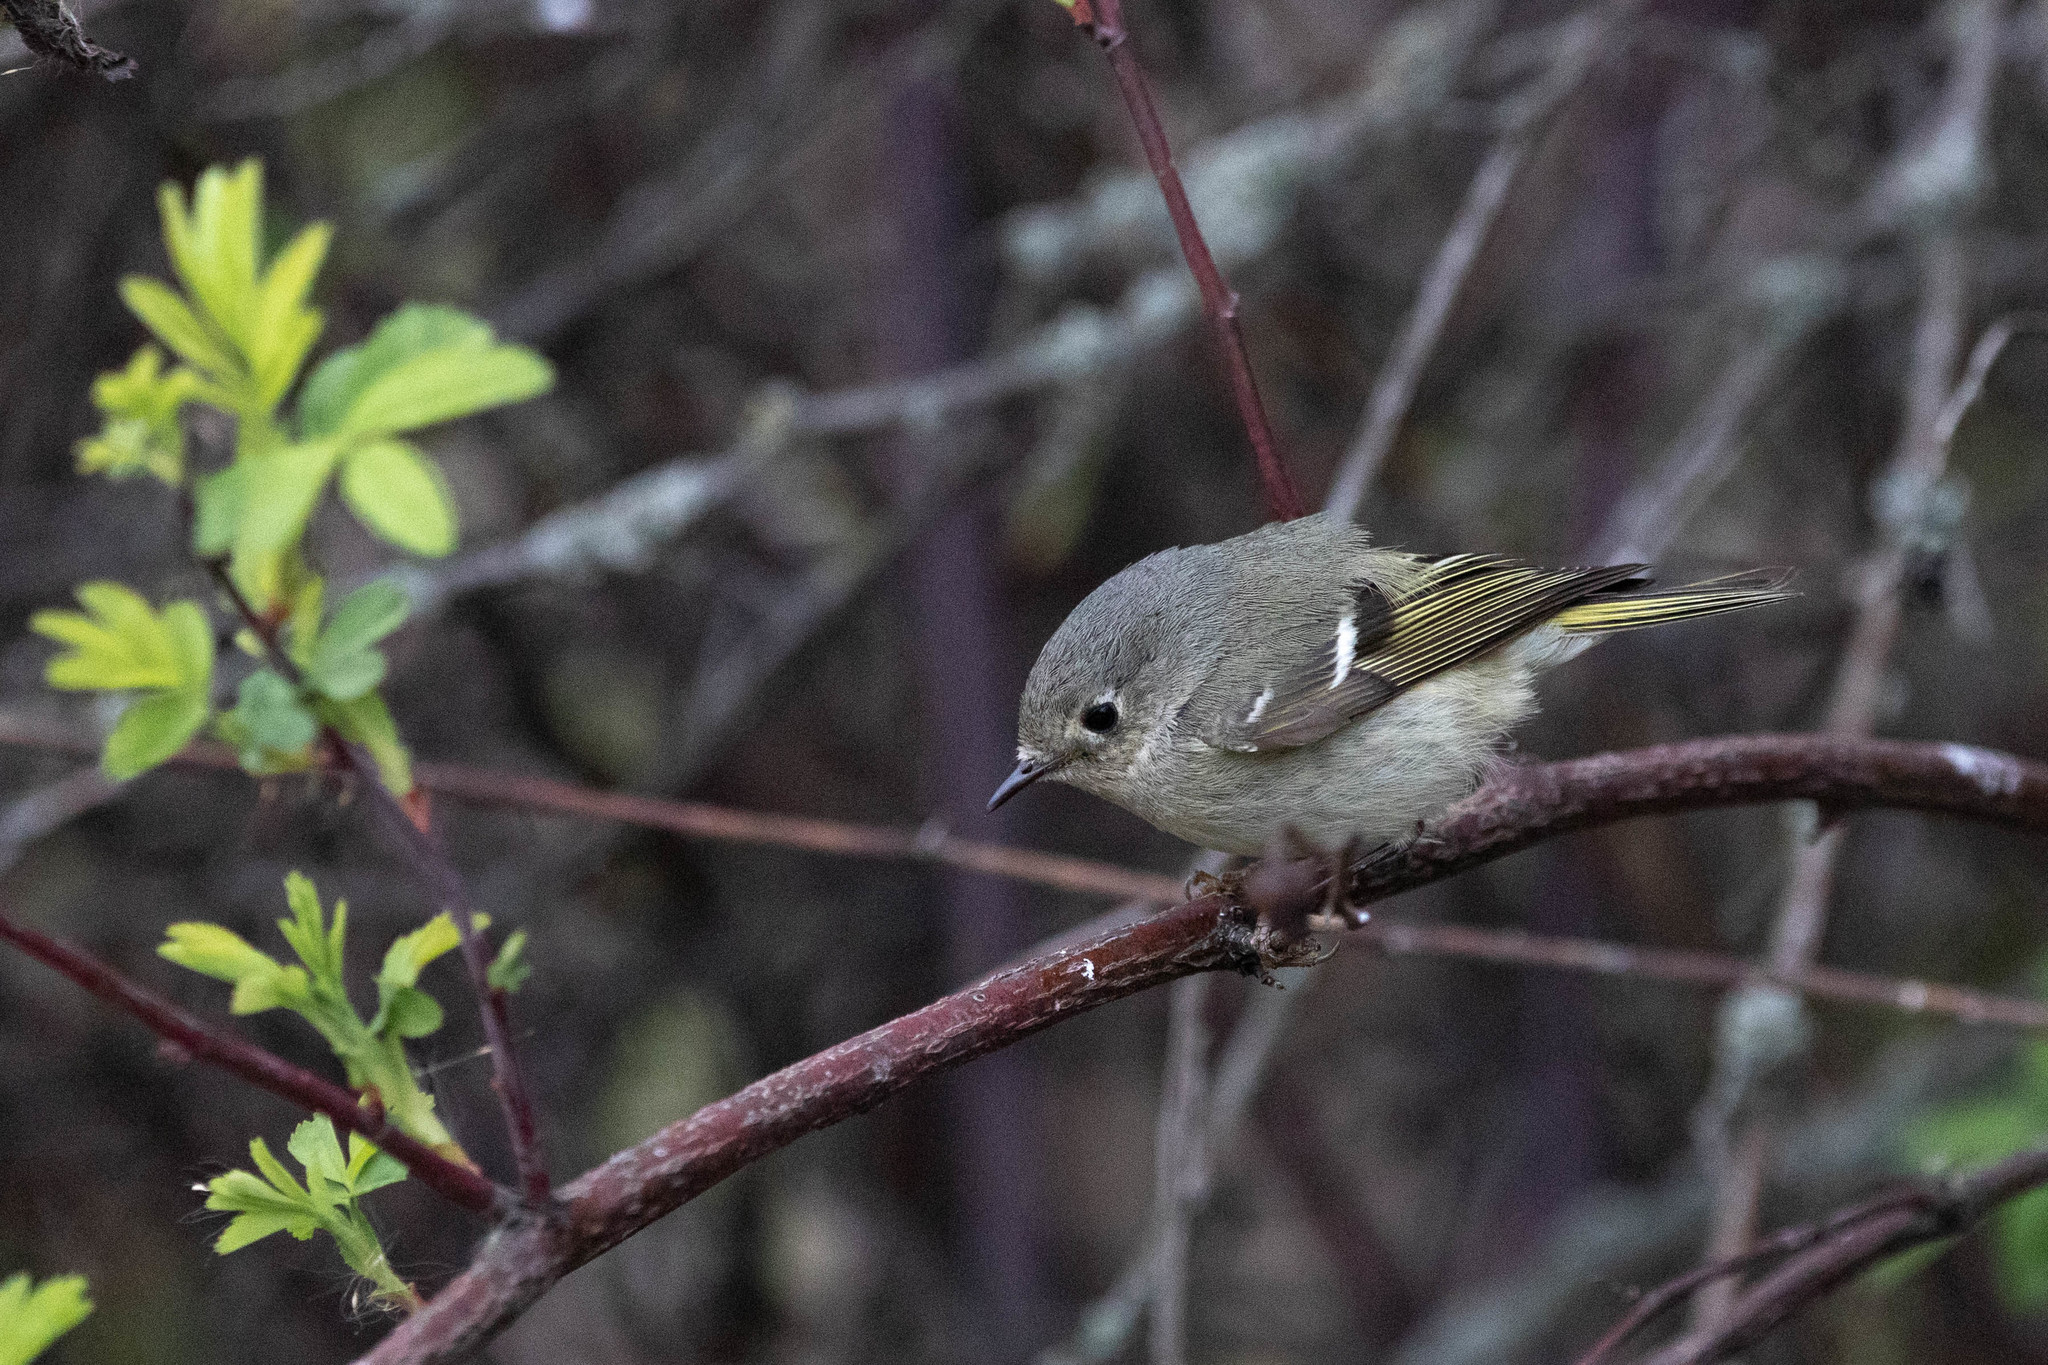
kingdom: Animalia
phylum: Chordata
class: Aves
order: Passeriformes
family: Regulidae
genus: Regulus
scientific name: Regulus calendula
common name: Ruby-crowned kinglet
